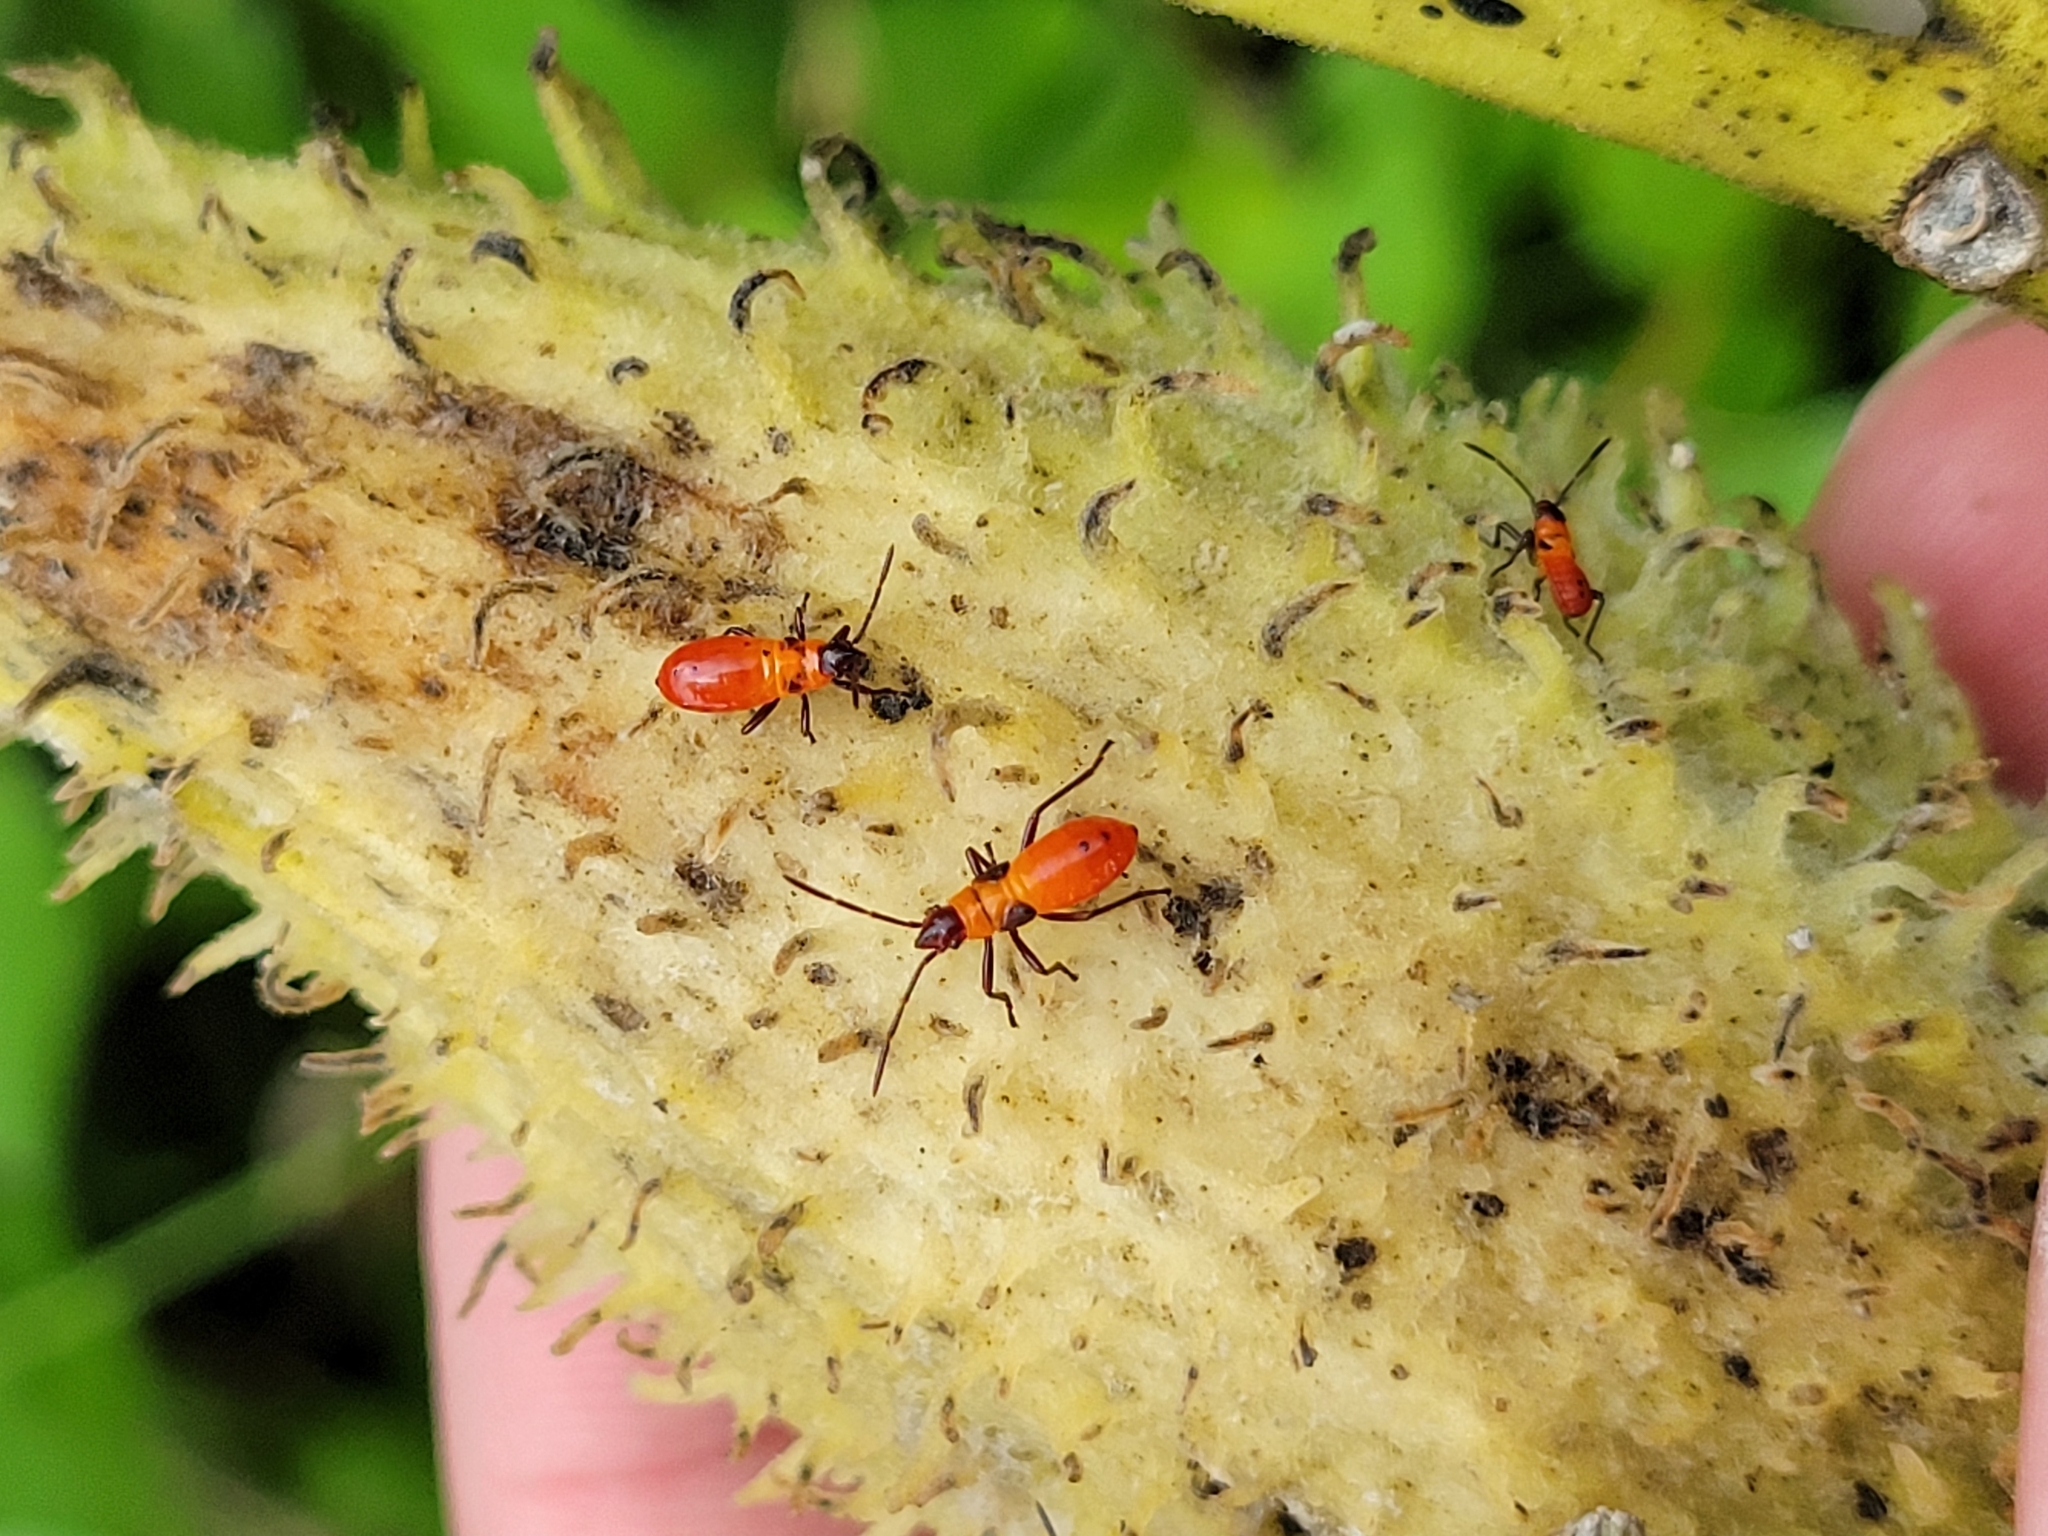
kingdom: Animalia
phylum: Arthropoda
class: Insecta
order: Hemiptera
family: Lygaeidae
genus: Oncopeltus
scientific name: Oncopeltus fasciatus
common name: Large milkweed bug
